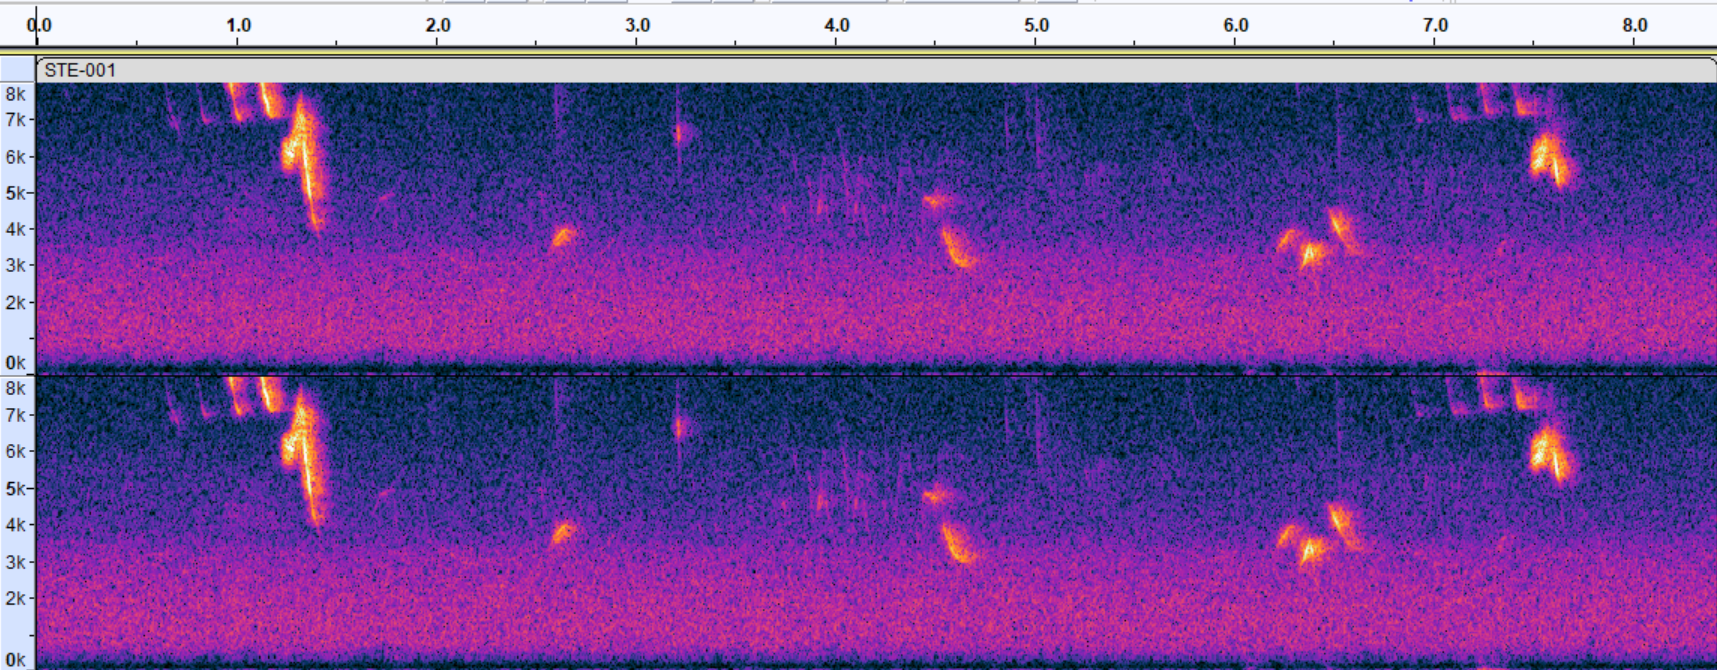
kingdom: Animalia
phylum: Chordata
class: Aves
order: Passeriformes
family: Parulidae
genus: Setophaga
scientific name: Setophaga ruticilla
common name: American redstart
